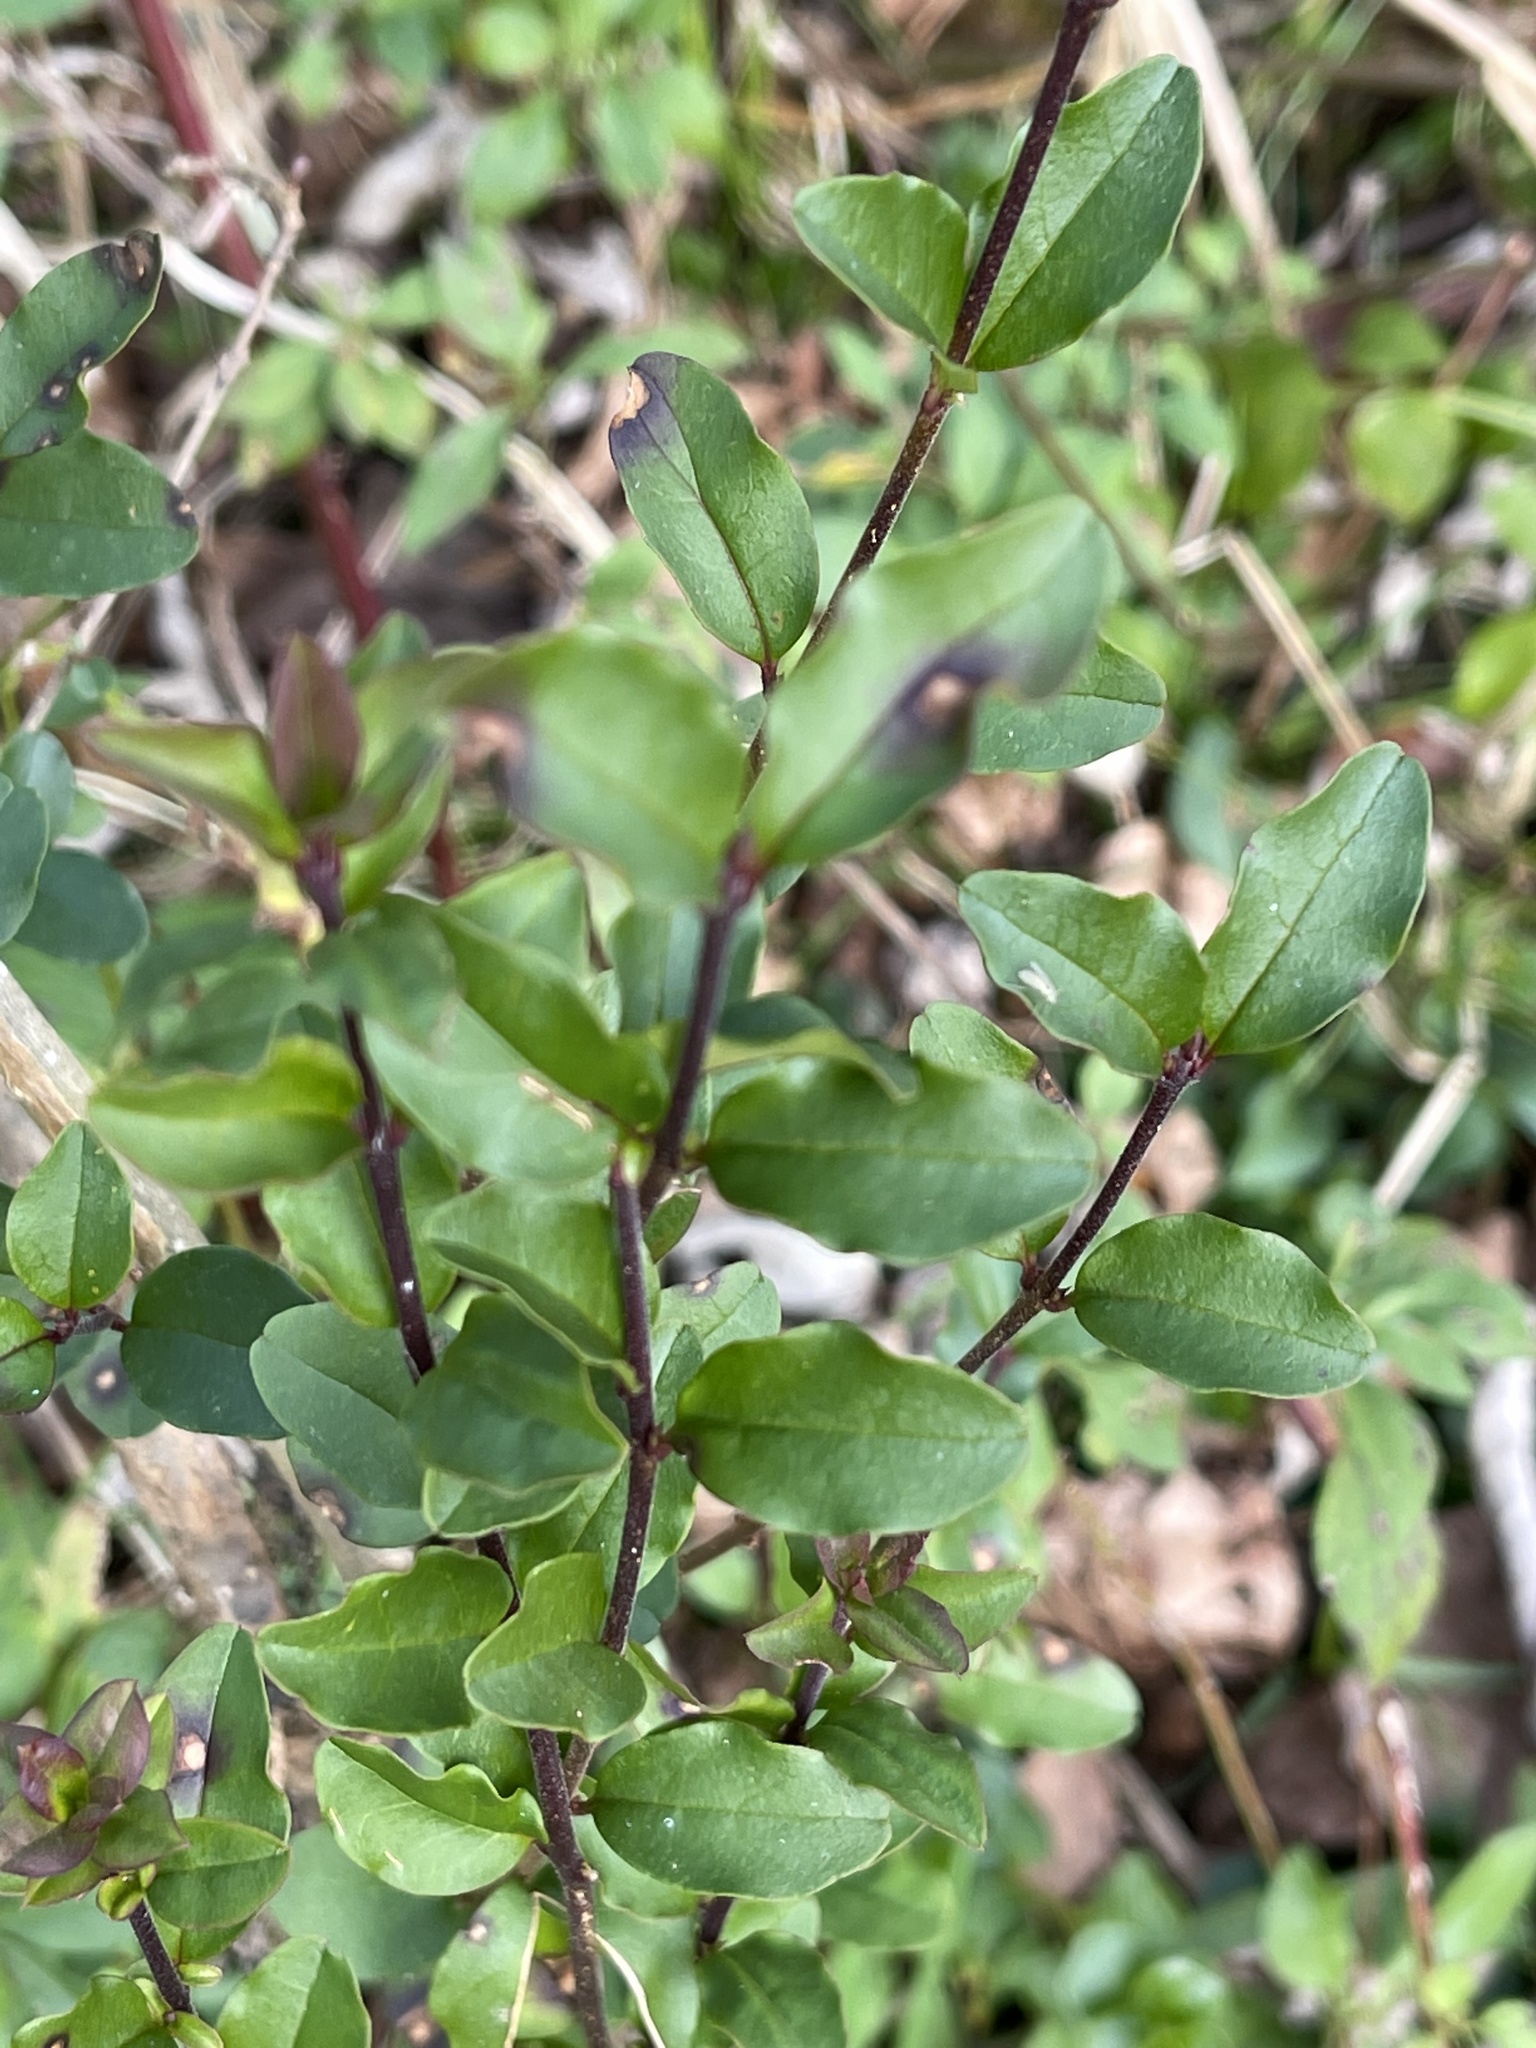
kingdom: Plantae
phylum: Tracheophyta
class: Magnoliopsida
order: Lamiales
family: Oleaceae
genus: Ligustrum
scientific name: Ligustrum sinense
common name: Chinese privet
